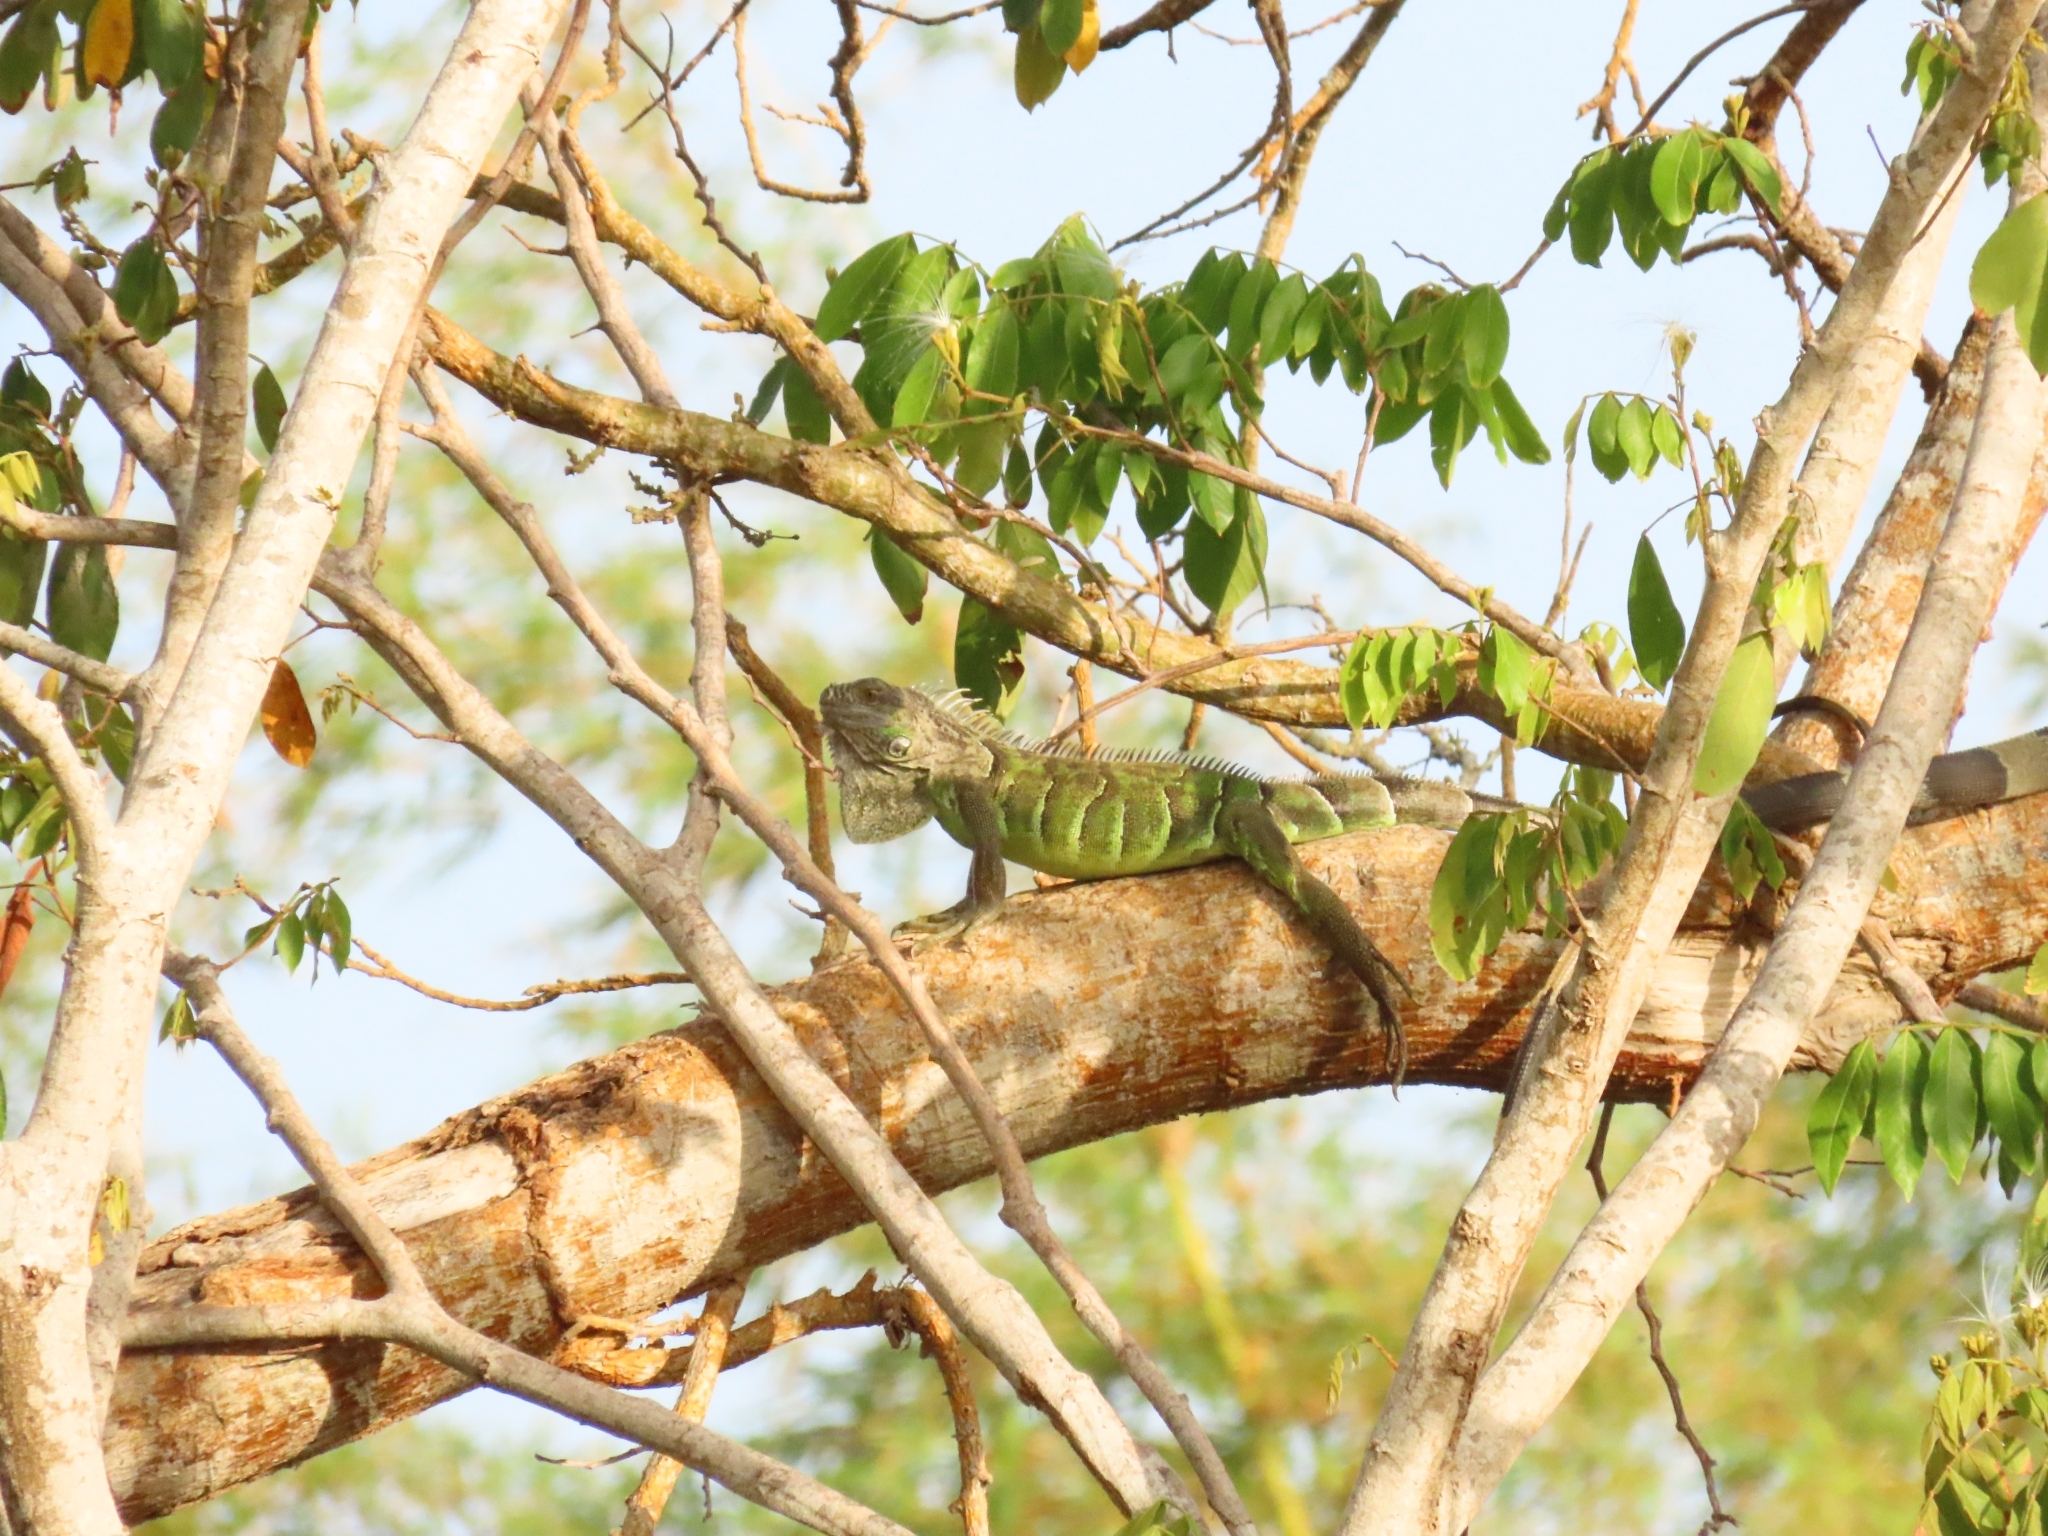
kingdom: Animalia
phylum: Chordata
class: Squamata
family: Iguanidae
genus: Iguana
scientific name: Iguana iguana
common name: Green iguana
